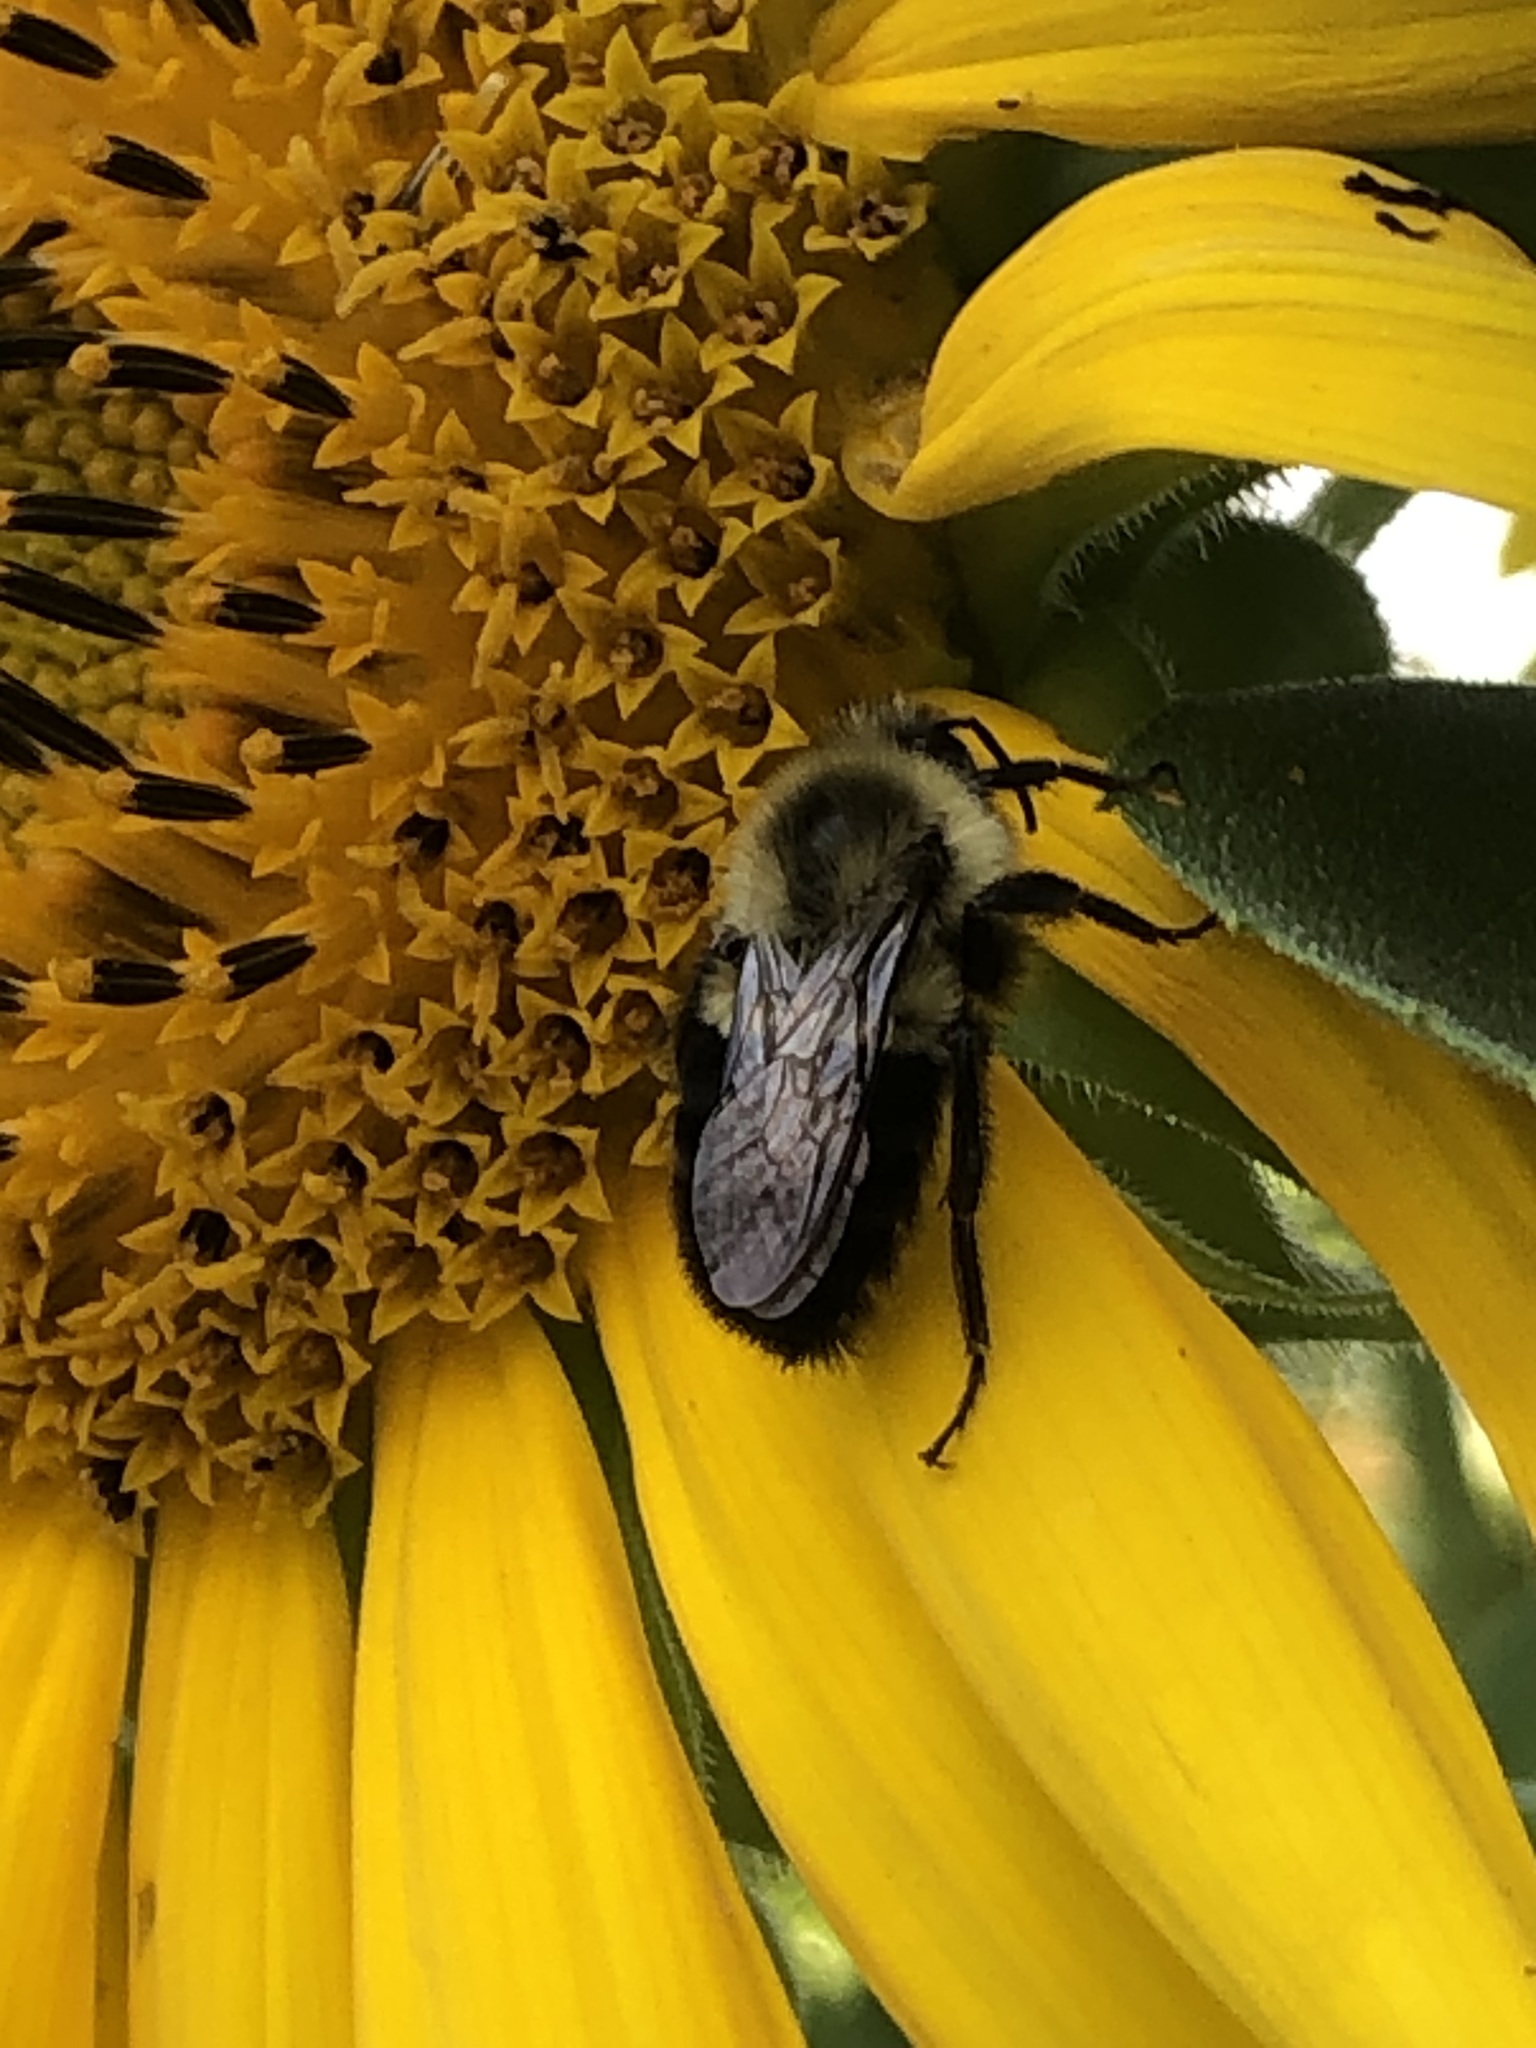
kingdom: Animalia
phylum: Arthropoda
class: Insecta
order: Hymenoptera
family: Apidae
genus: Bombus
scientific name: Bombus impatiens
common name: Common eastern bumble bee
